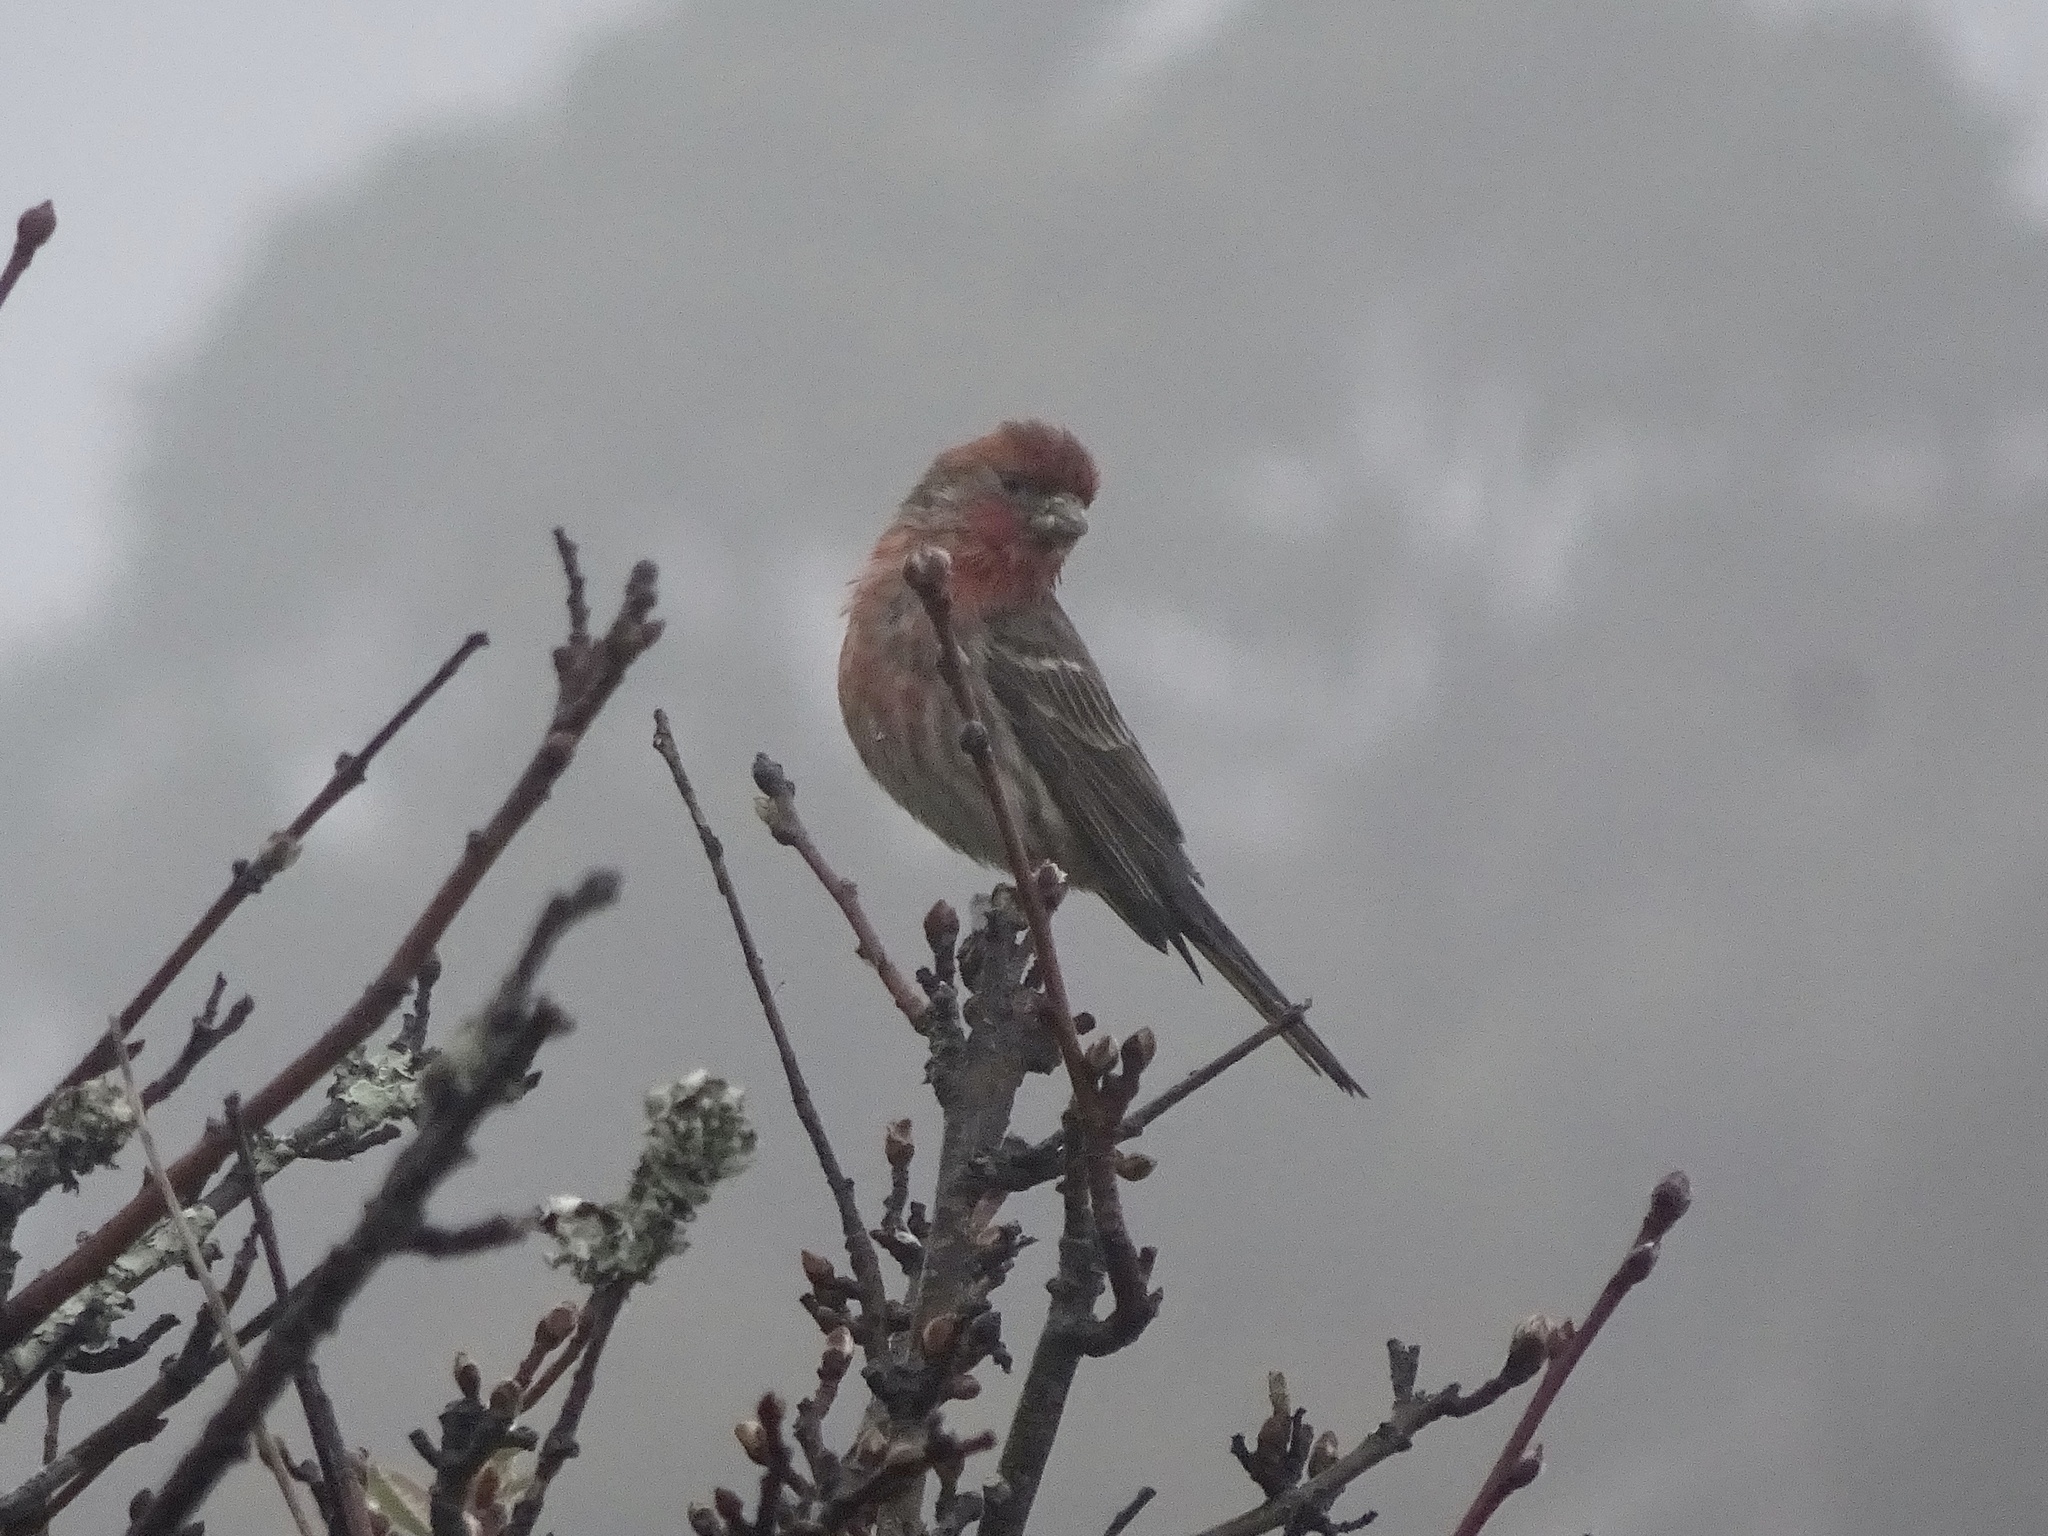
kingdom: Animalia
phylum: Chordata
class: Aves
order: Passeriformes
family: Fringillidae
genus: Haemorhous
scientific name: Haemorhous mexicanus
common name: House finch
